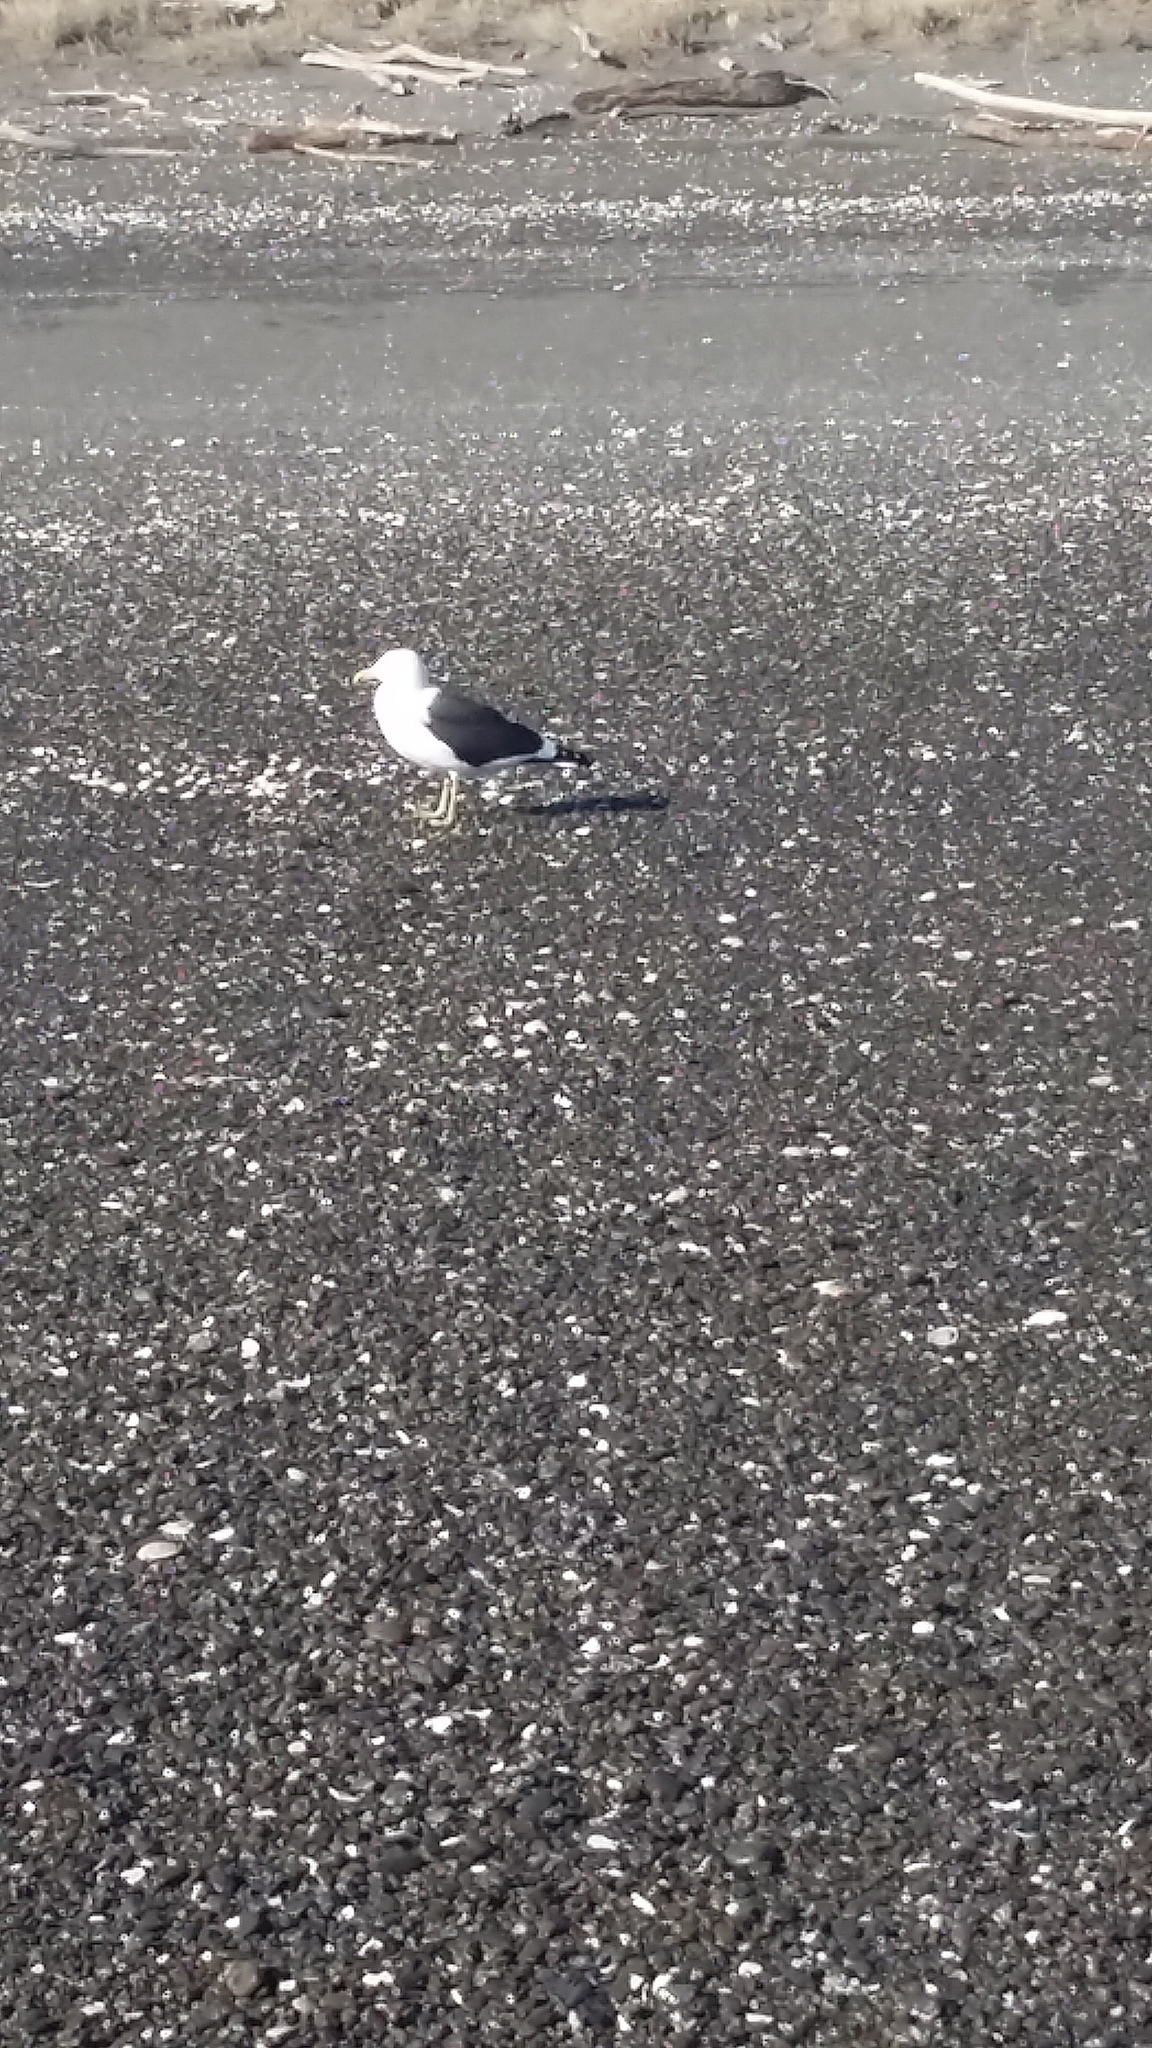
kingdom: Animalia
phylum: Chordata
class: Aves
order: Charadriiformes
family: Laridae
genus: Larus
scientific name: Larus dominicanus
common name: Kelp gull
